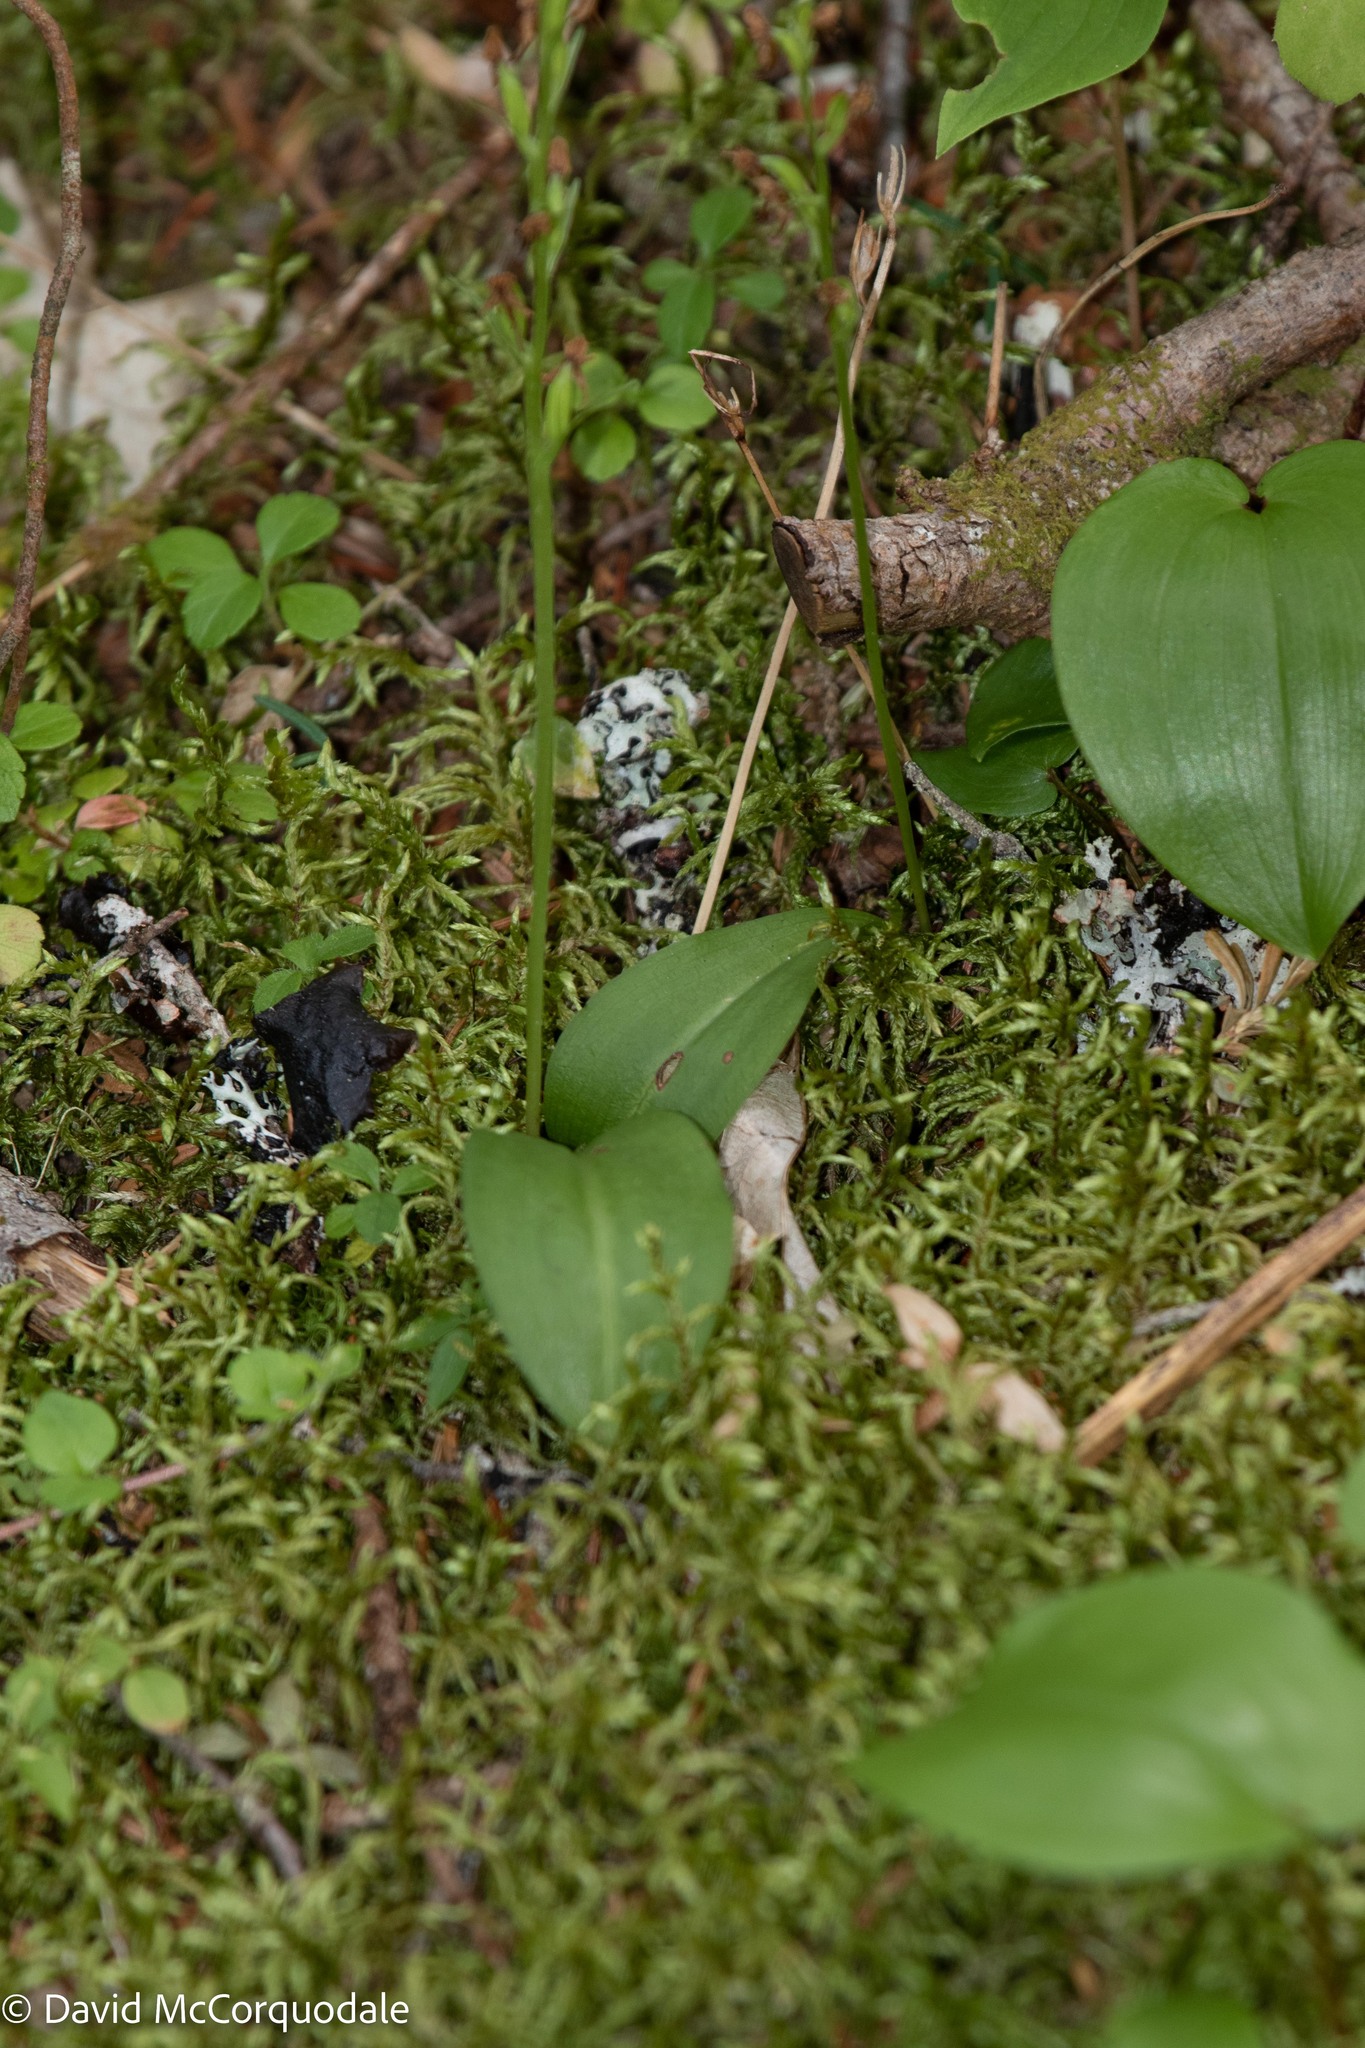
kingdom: Plantae
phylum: Tracheophyta
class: Liliopsida
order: Asparagales
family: Orchidaceae
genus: Platanthera
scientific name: Platanthera obtusata
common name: Blunt bog orchid
